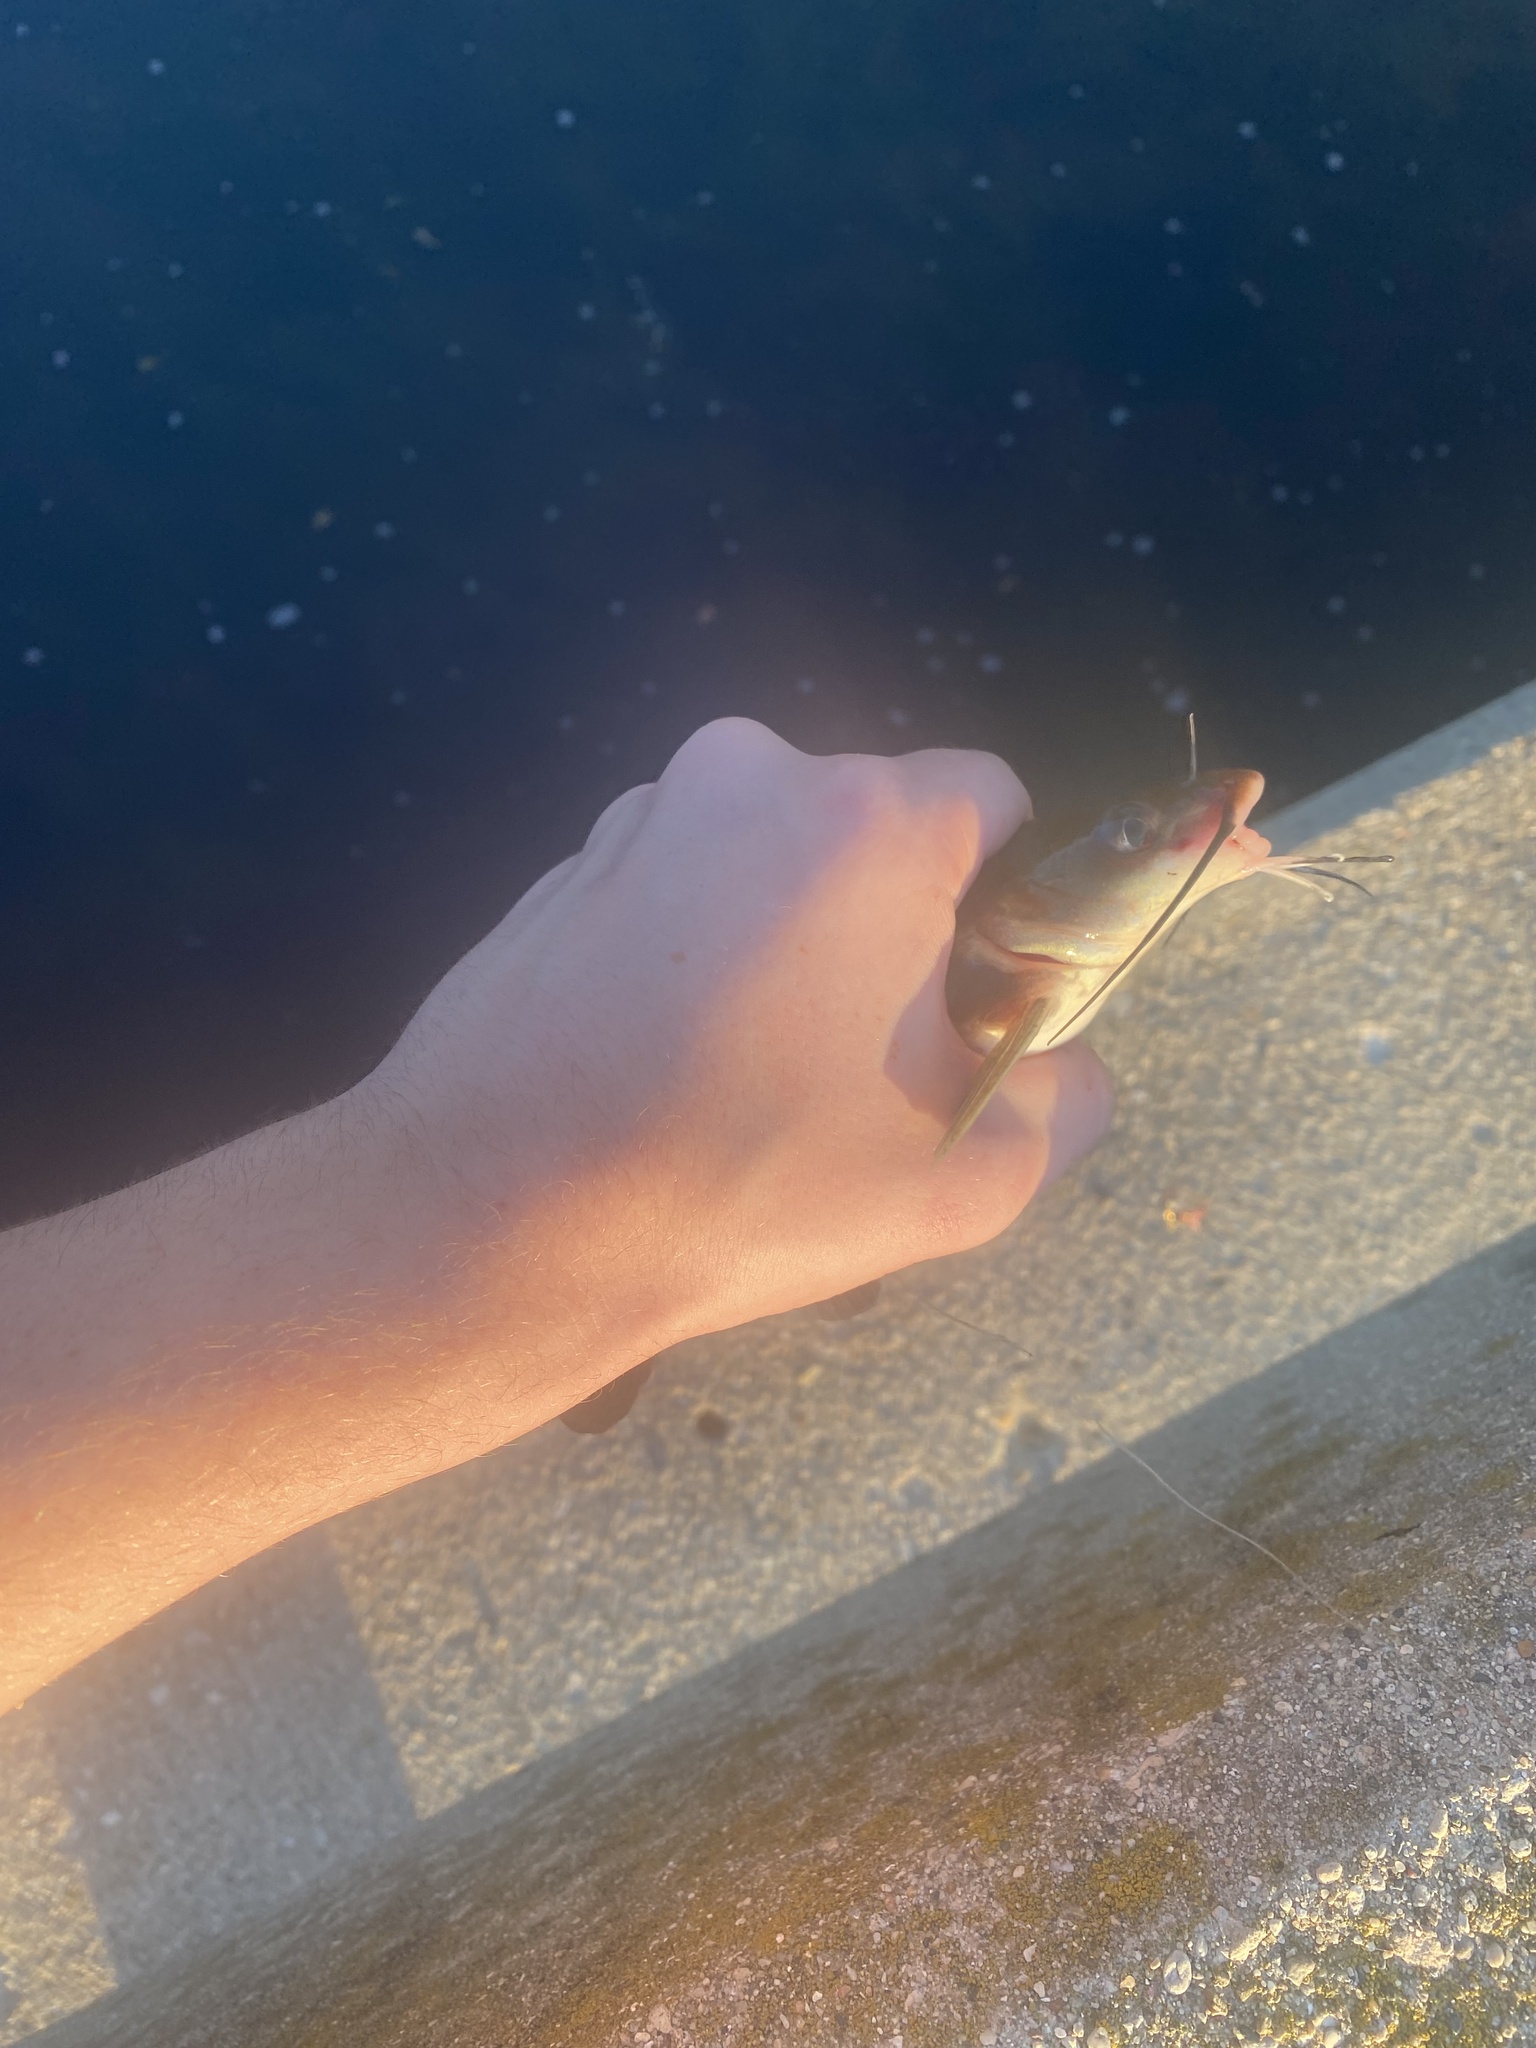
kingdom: Animalia
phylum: Chordata
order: Siluriformes
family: Ictaluridae
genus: Ictalurus
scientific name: Ictalurus punctatus
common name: Channel catfish
